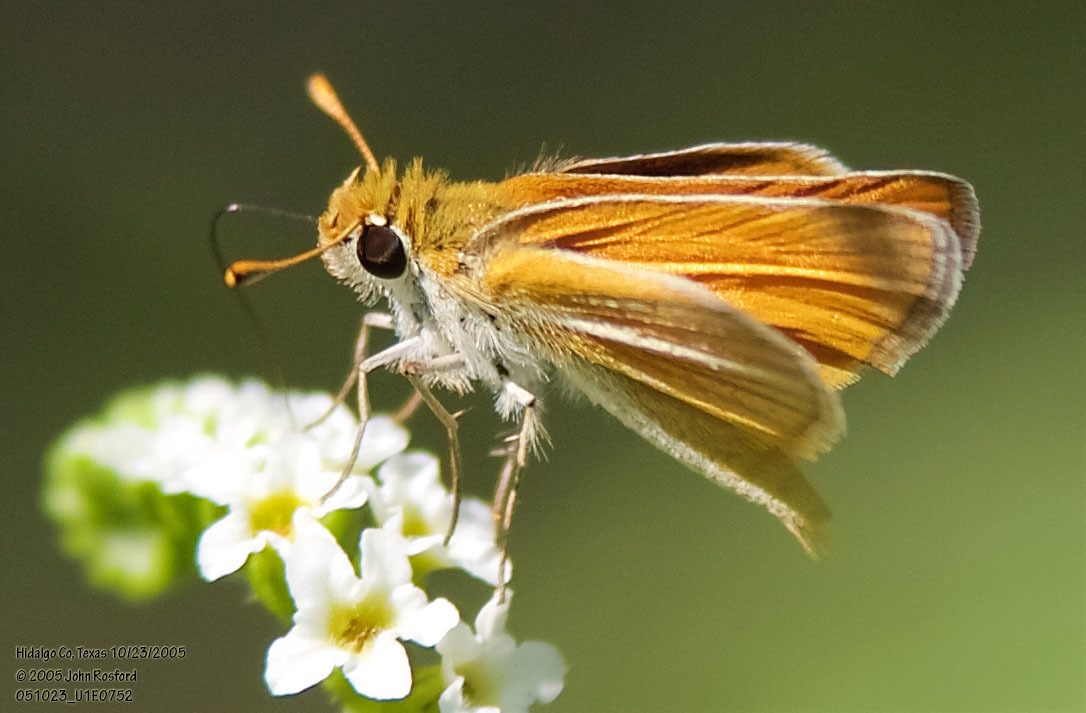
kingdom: Animalia
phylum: Arthropoda
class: Insecta
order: Lepidoptera
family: Hesperiidae
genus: Copaeodes
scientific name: Copaeodes minima
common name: Southern skipperling
